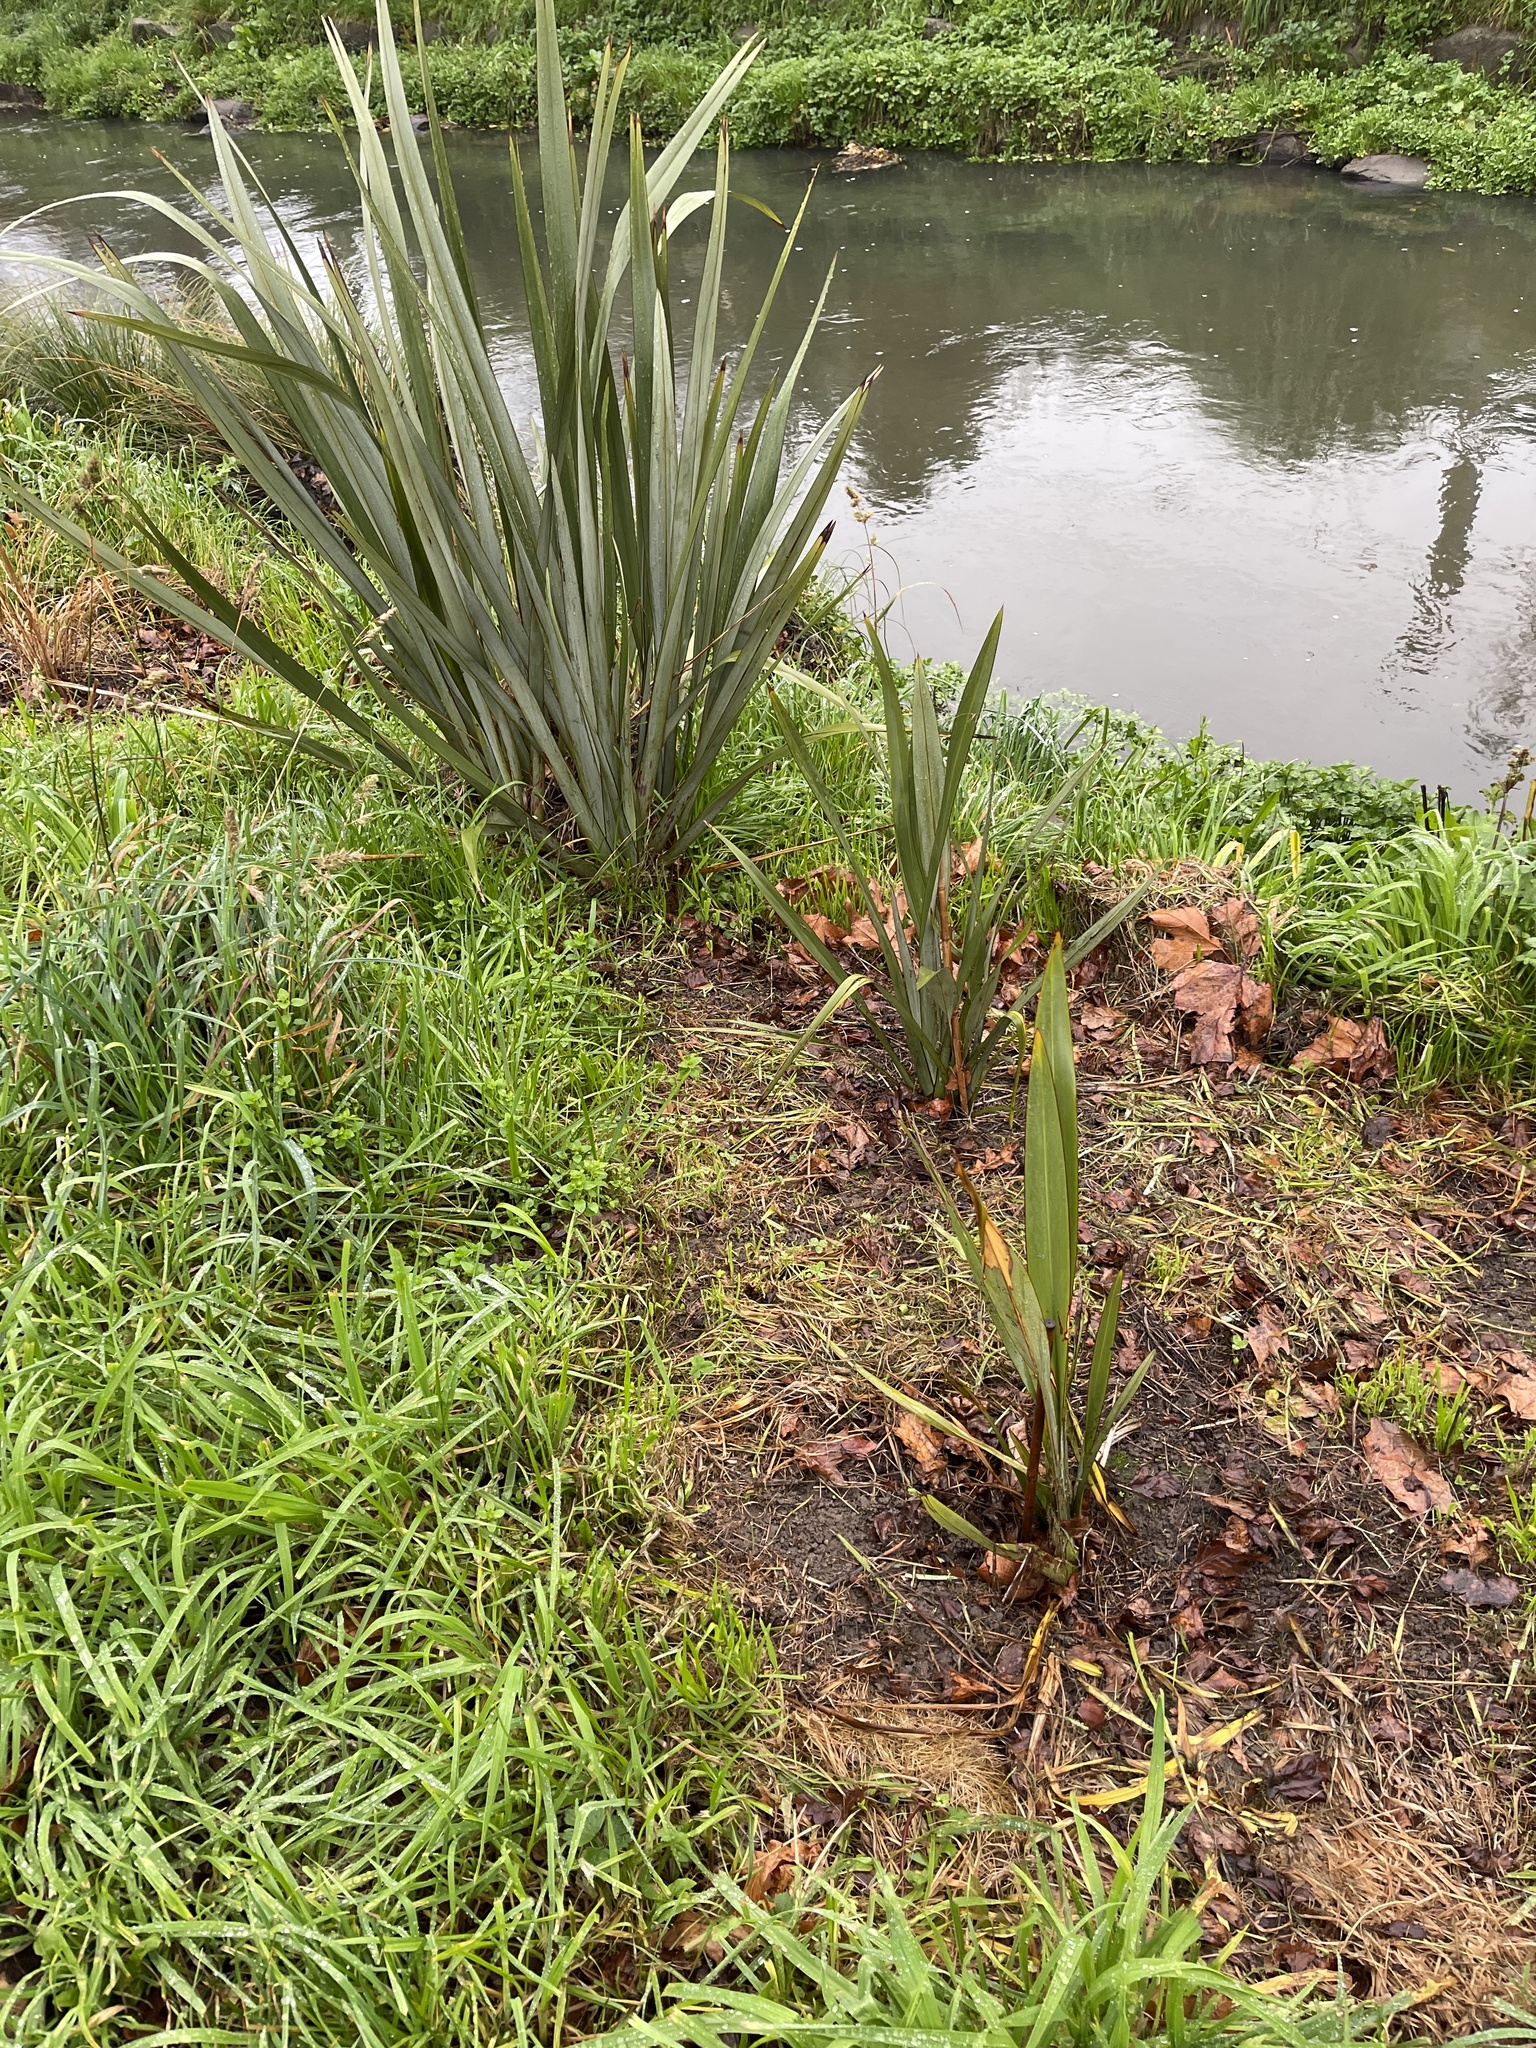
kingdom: Plantae
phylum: Tracheophyta
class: Liliopsida
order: Asparagales
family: Asphodelaceae
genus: Phormium
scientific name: Phormium tenax
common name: New zealand flax
